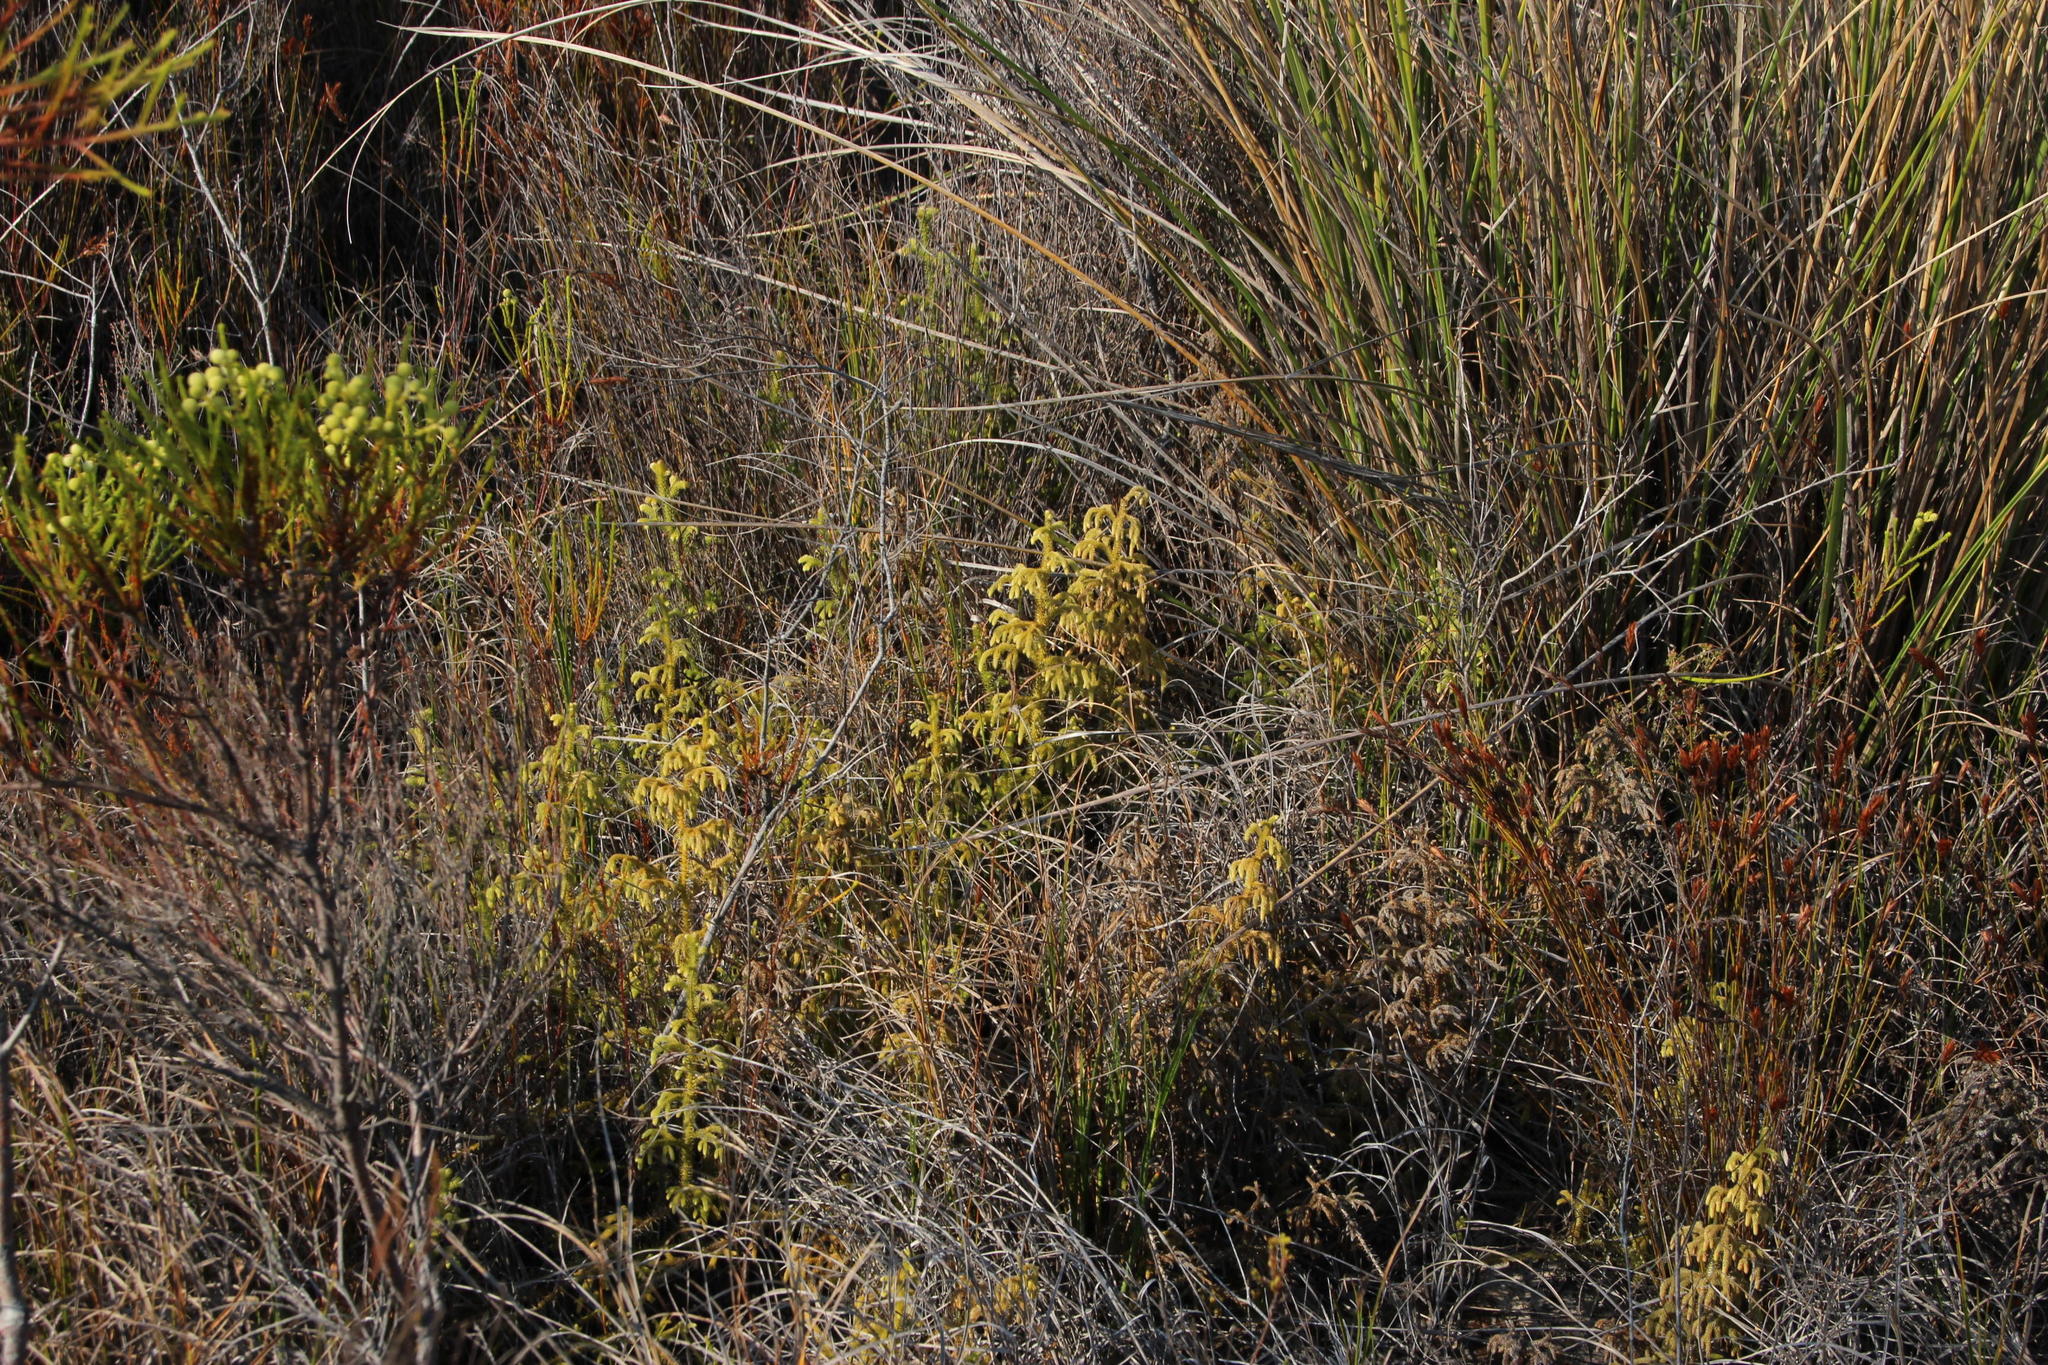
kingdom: Plantae
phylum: Tracheophyta
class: Lycopodiopsida
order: Lycopodiales
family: Lycopodiaceae
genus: Palhinhaea
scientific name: Palhinhaea cernua
